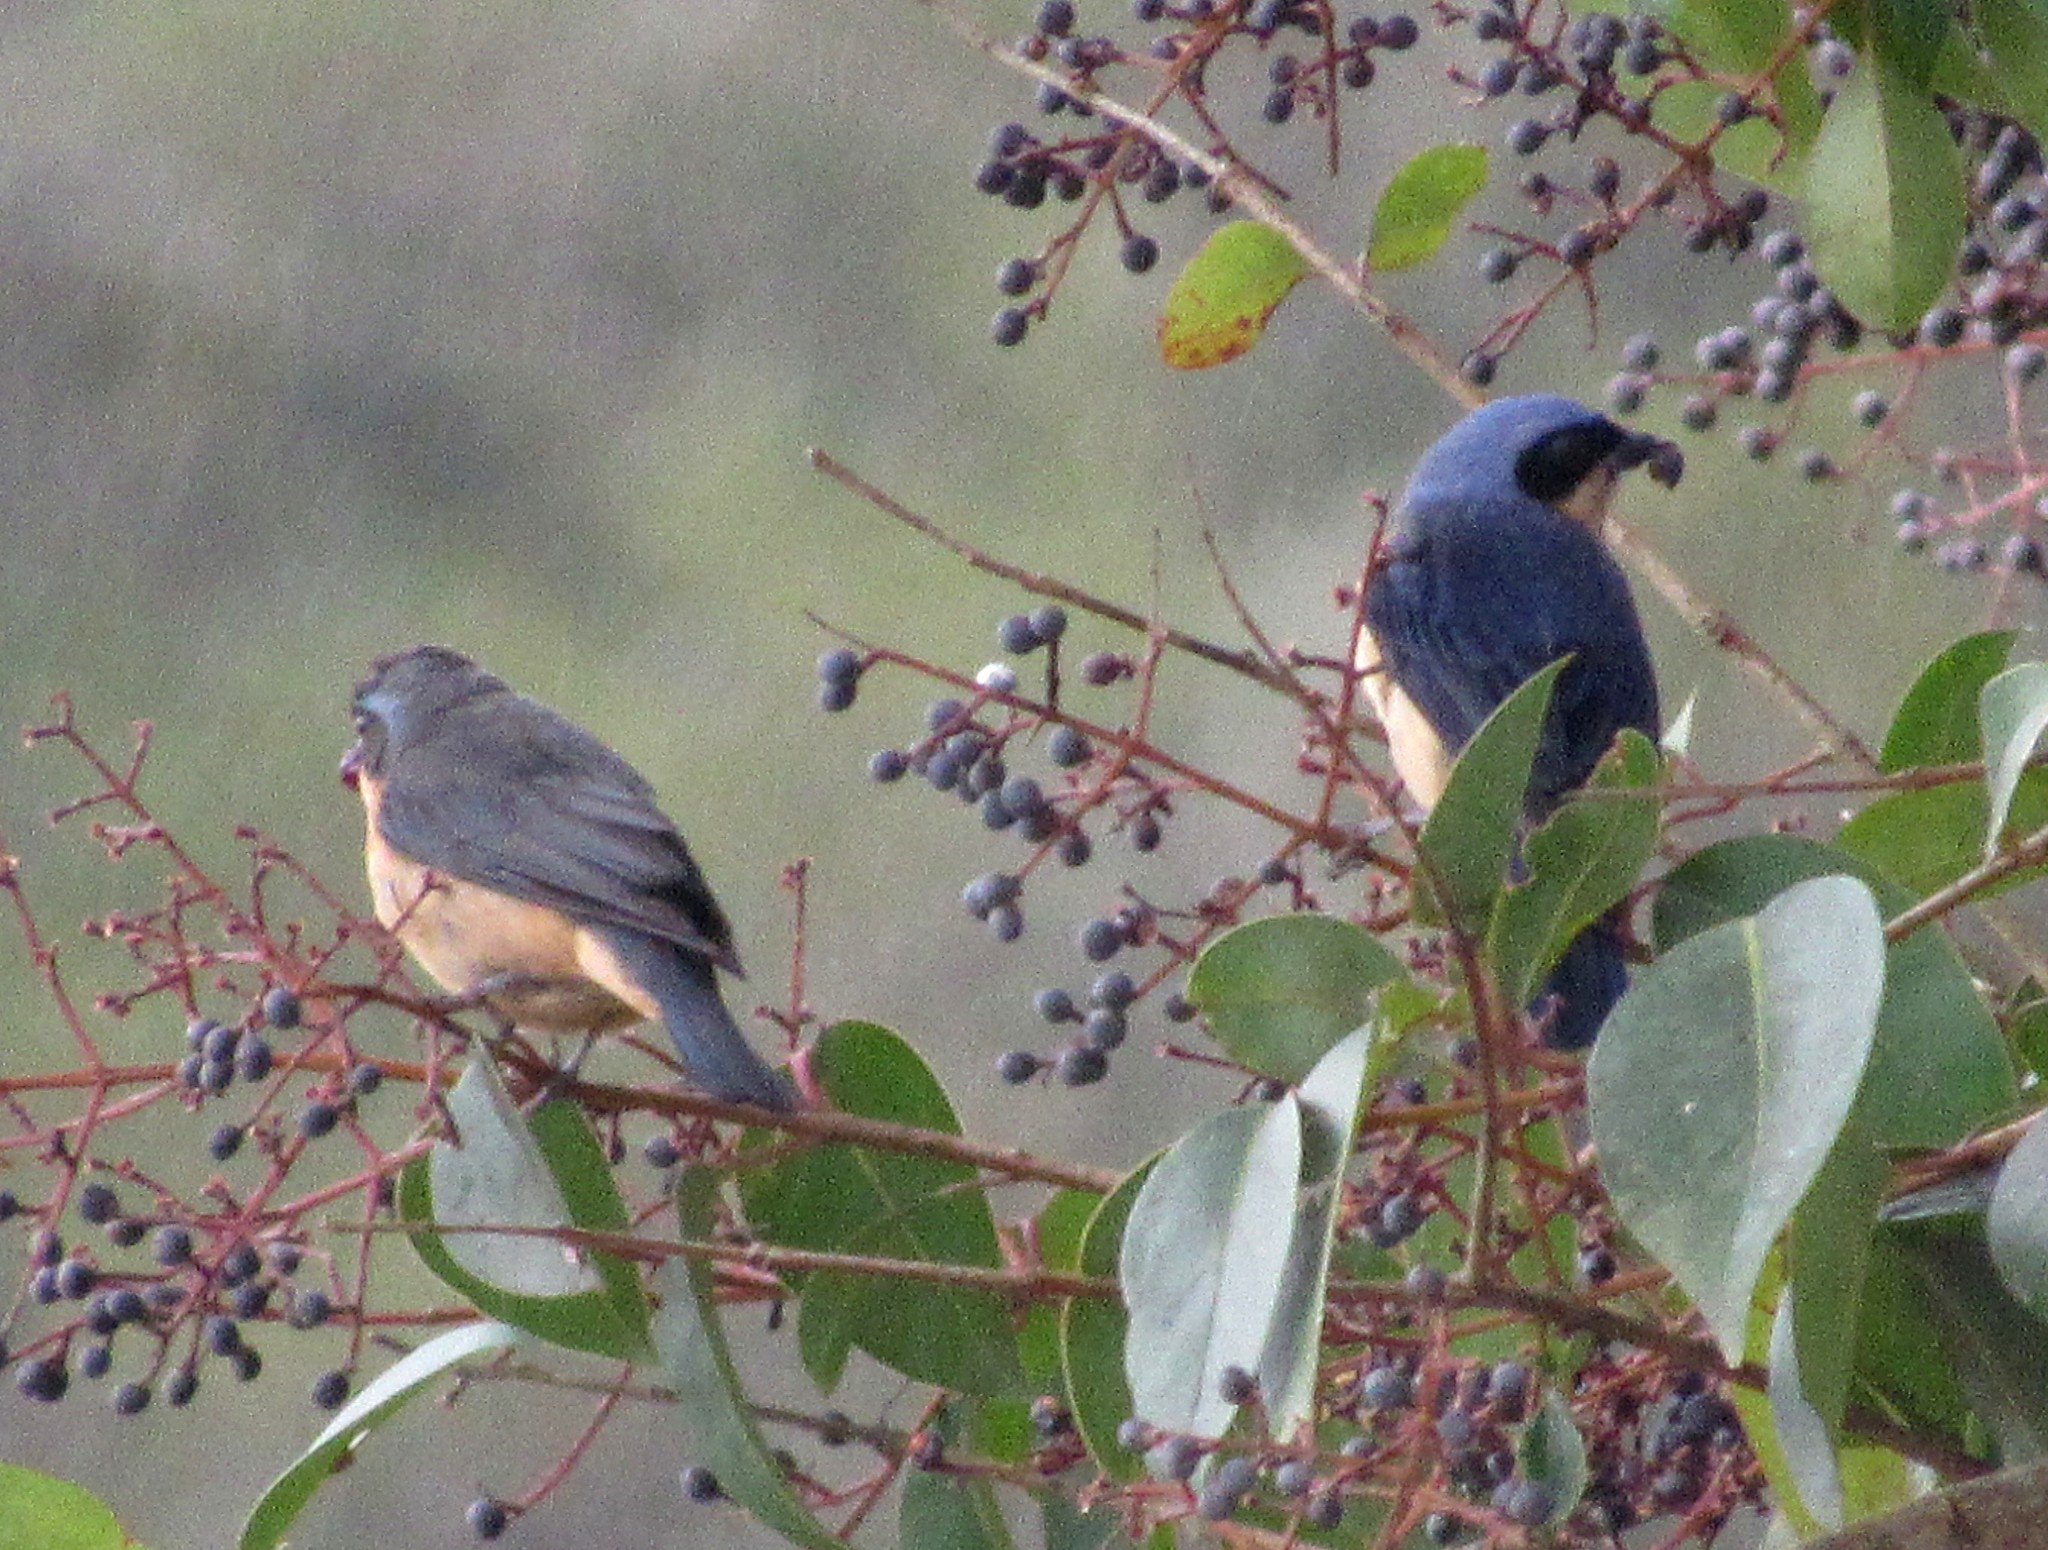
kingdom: Animalia
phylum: Chordata
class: Aves
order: Passeriformes
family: Thraupidae
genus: Pipraeidea
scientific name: Pipraeidea melanonota
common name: Fawn-breasted tanager
